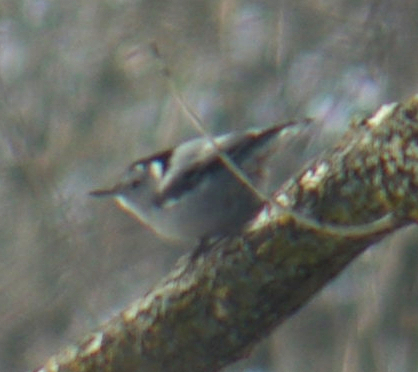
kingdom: Animalia
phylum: Chordata
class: Aves
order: Passeriformes
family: Sittidae
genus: Sitta
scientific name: Sitta carolinensis
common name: White-breasted nuthatch
